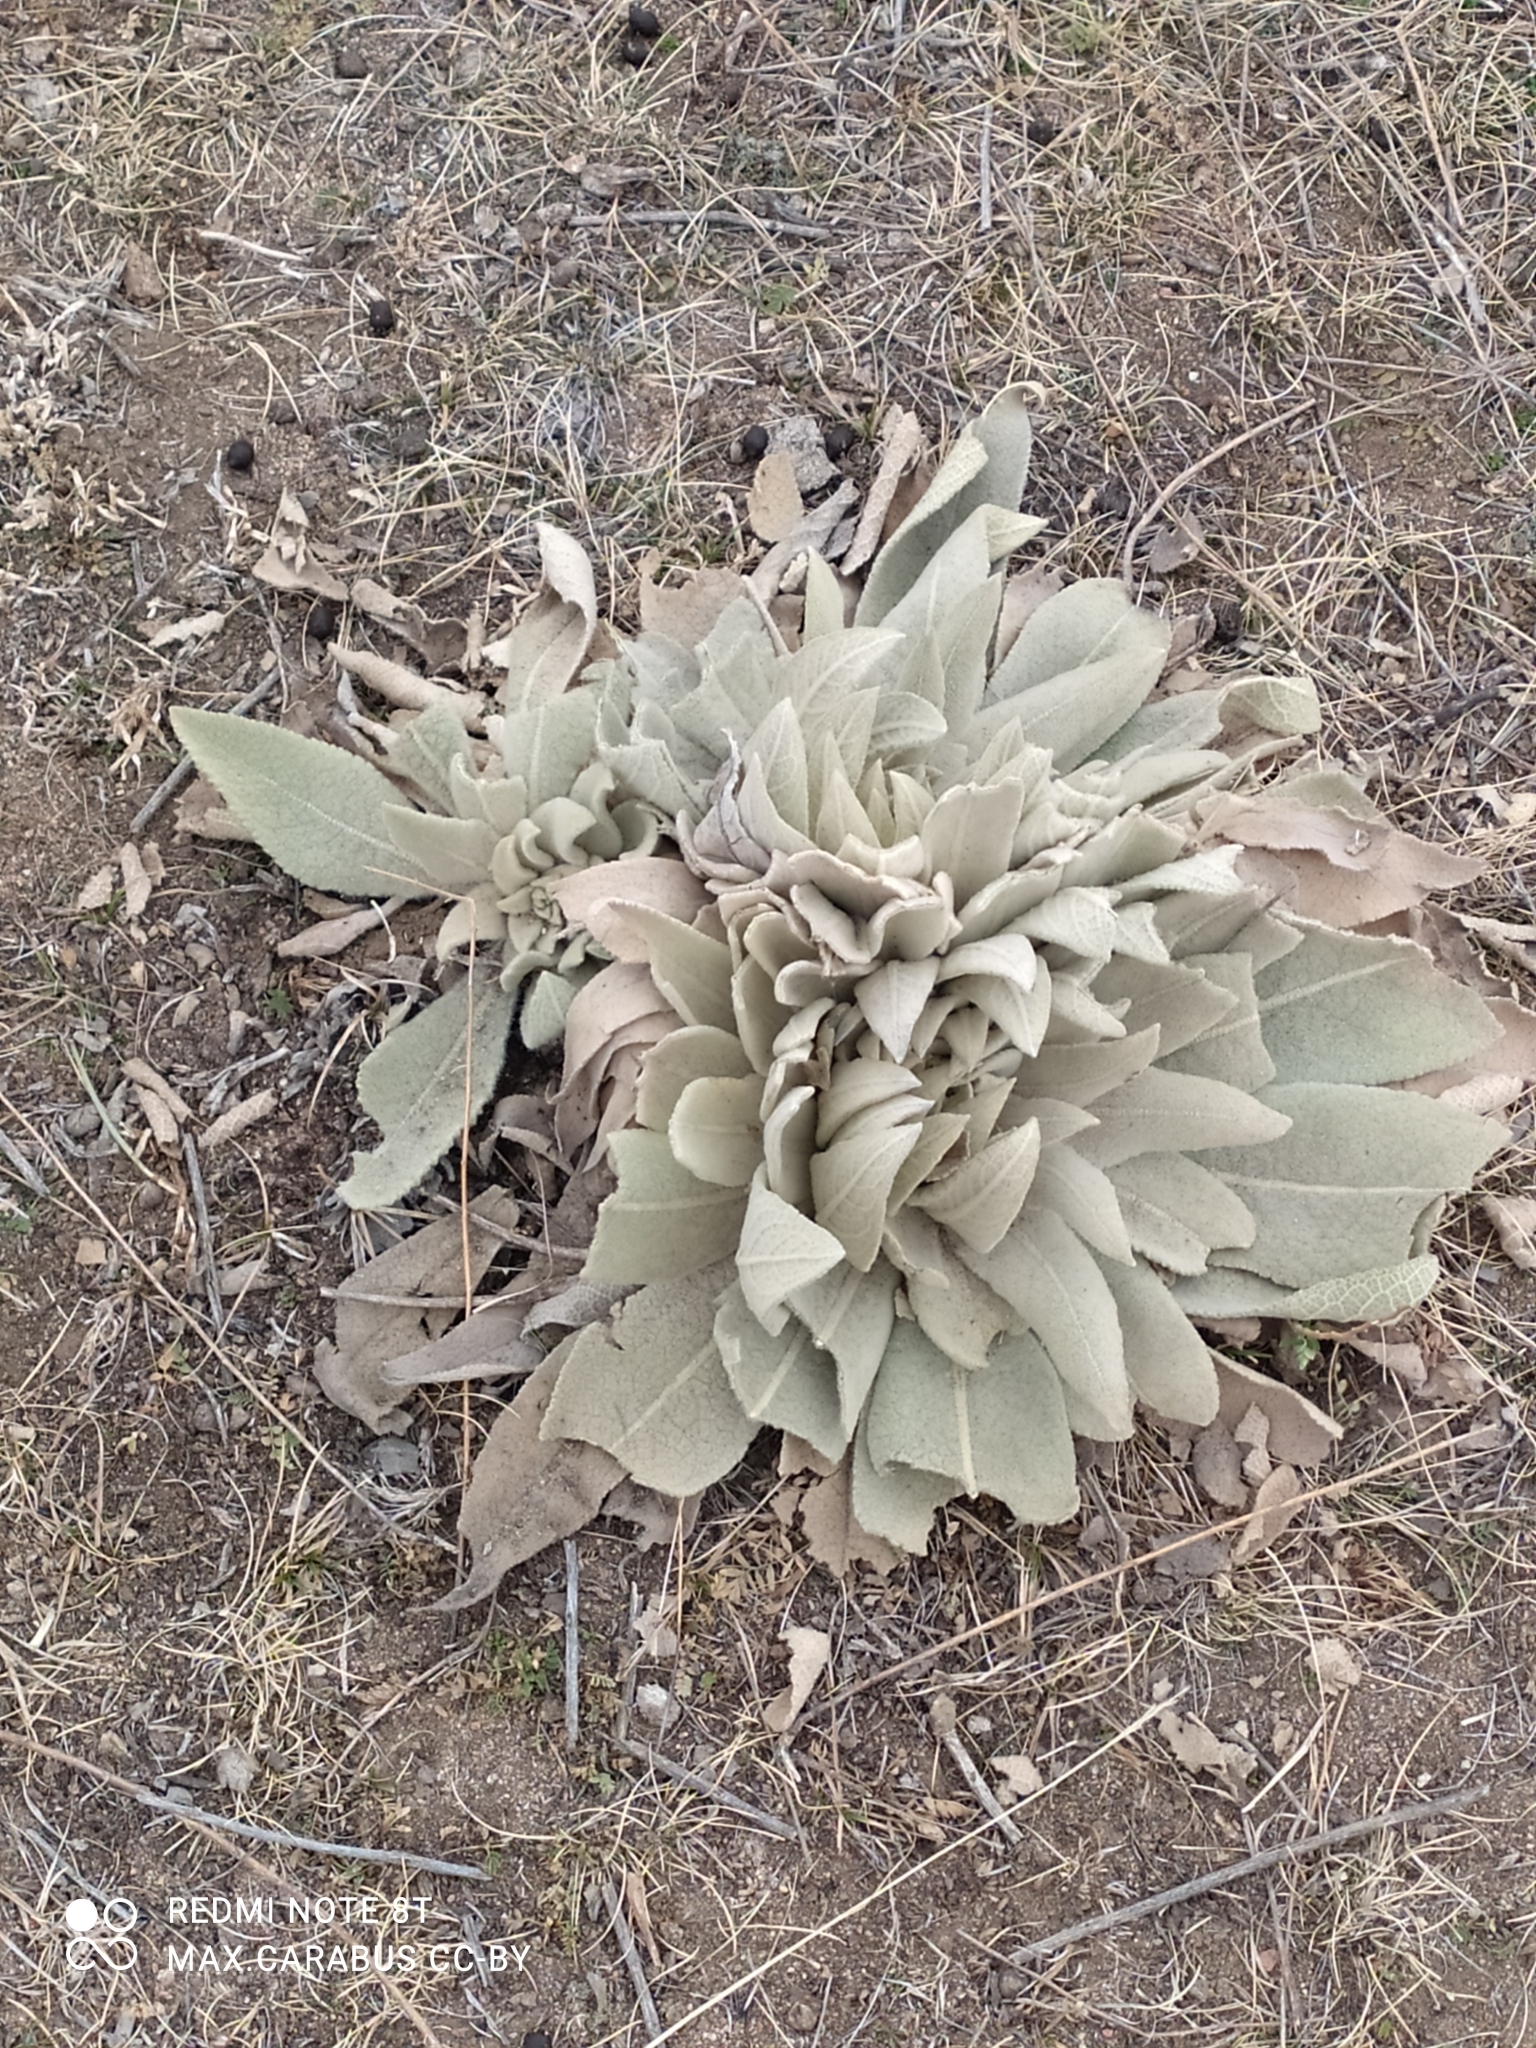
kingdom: Plantae
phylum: Tracheophyta
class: Magnoliopsida
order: Lamiales
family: Scrophulariaceae
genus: Verbascum
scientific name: Verbascum songaricum
